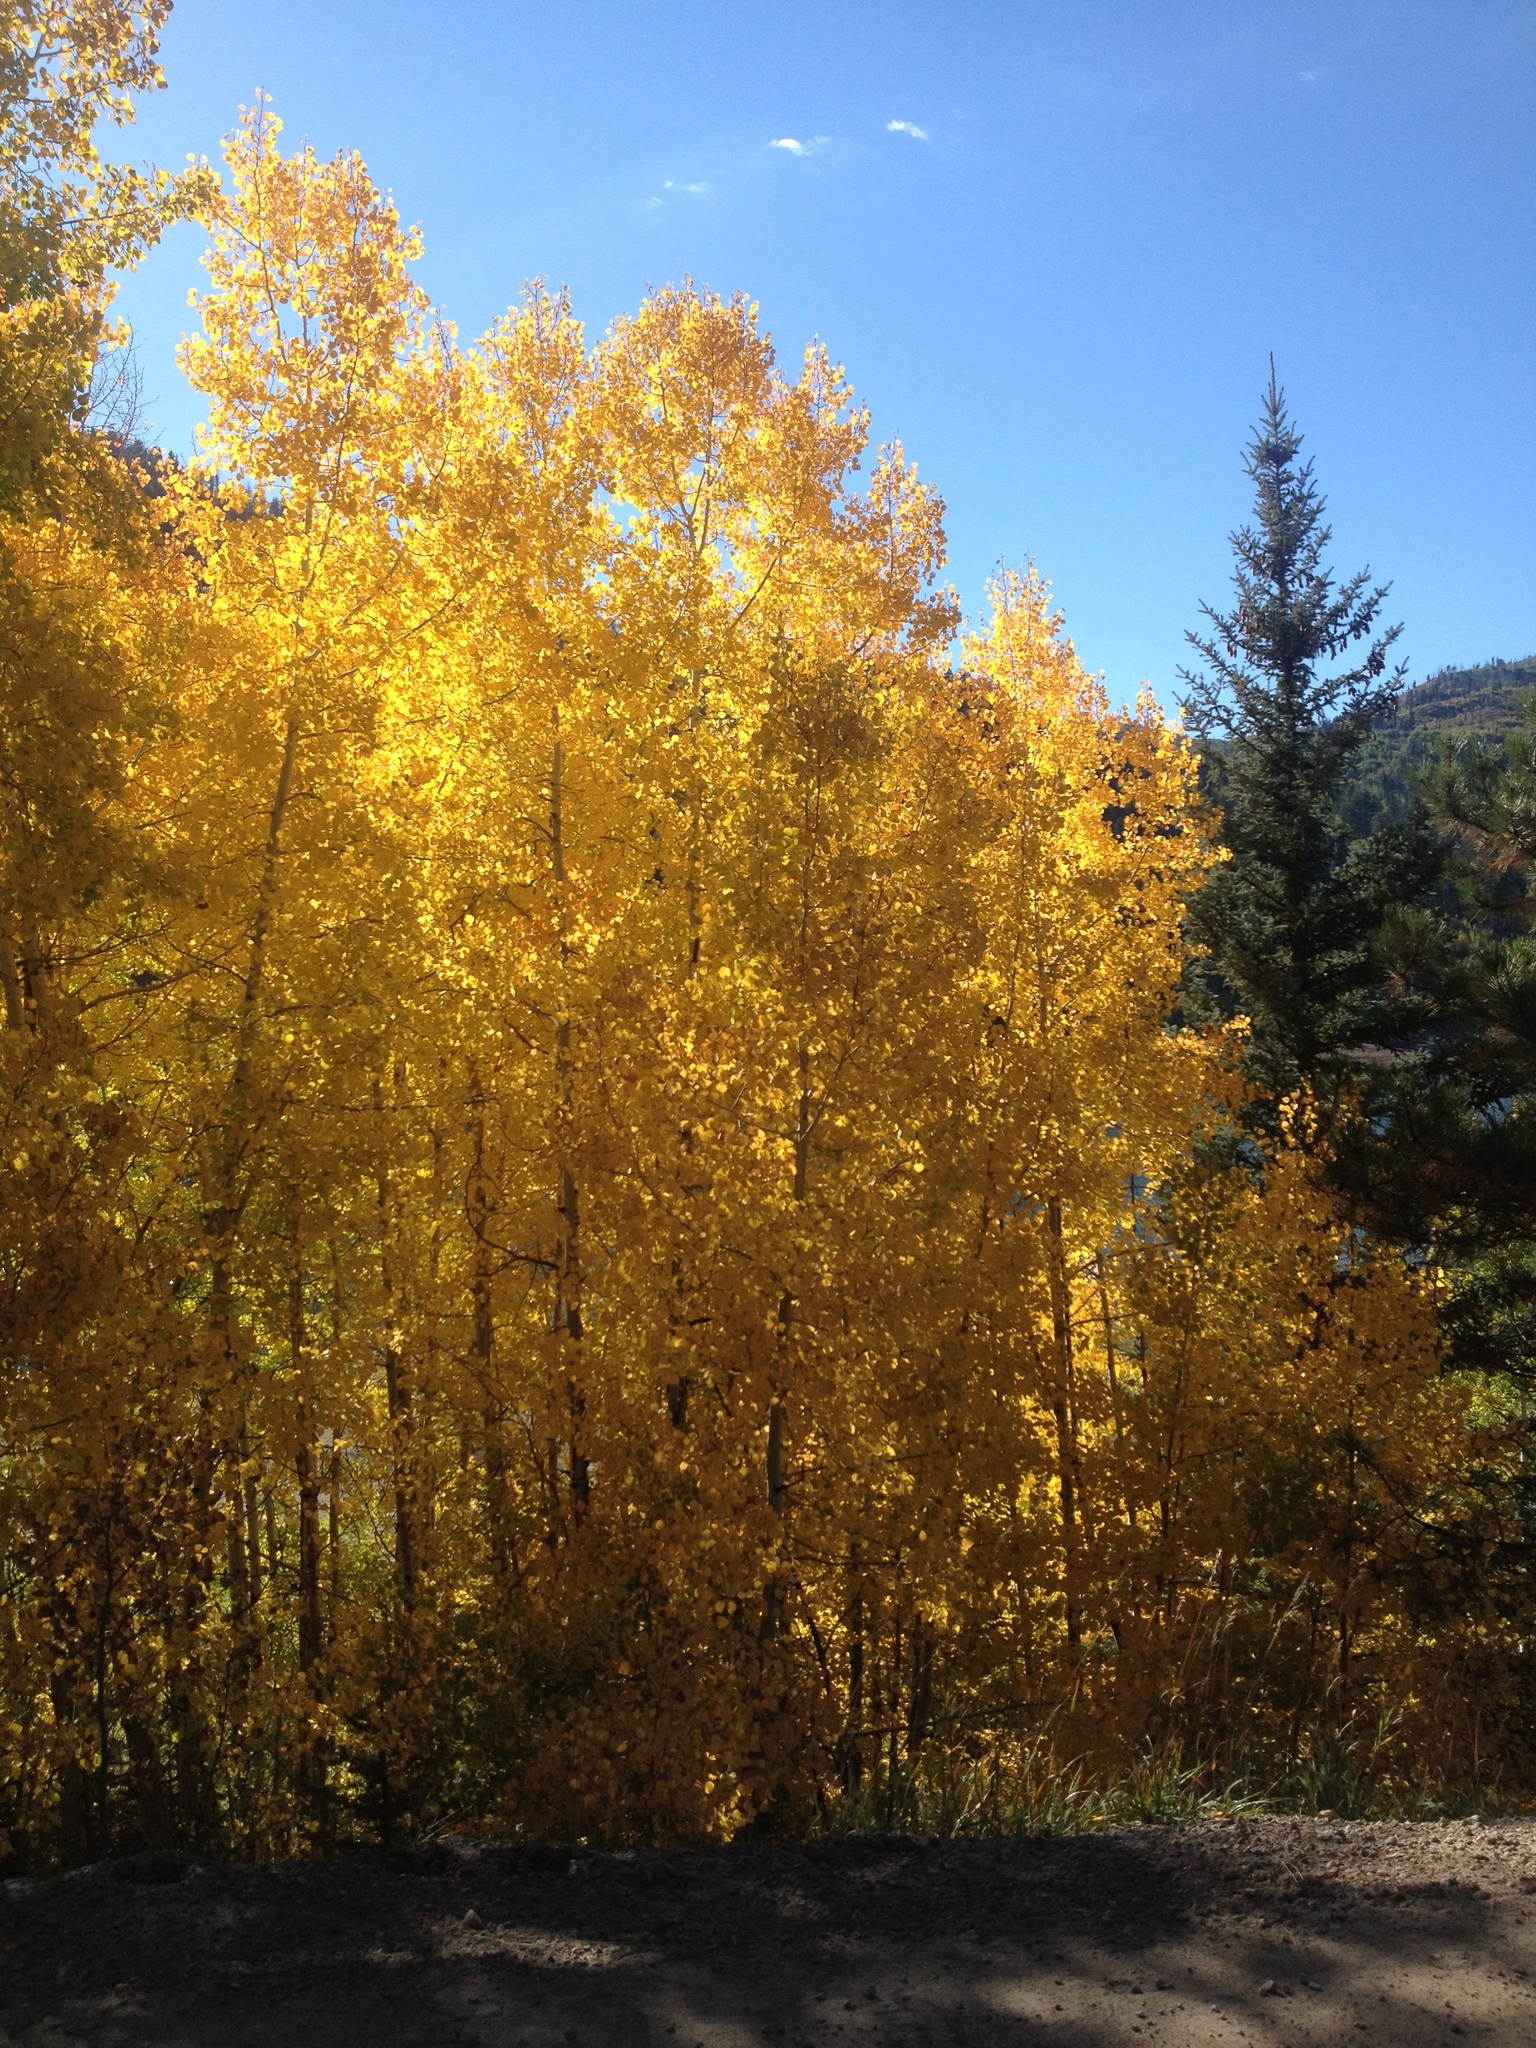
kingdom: Plantae
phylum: Tracheophyta
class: Magnoliopsida
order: Malpighiales
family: Salicaceae
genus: Populus
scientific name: Populus tremuloides
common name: Quaking aspen
